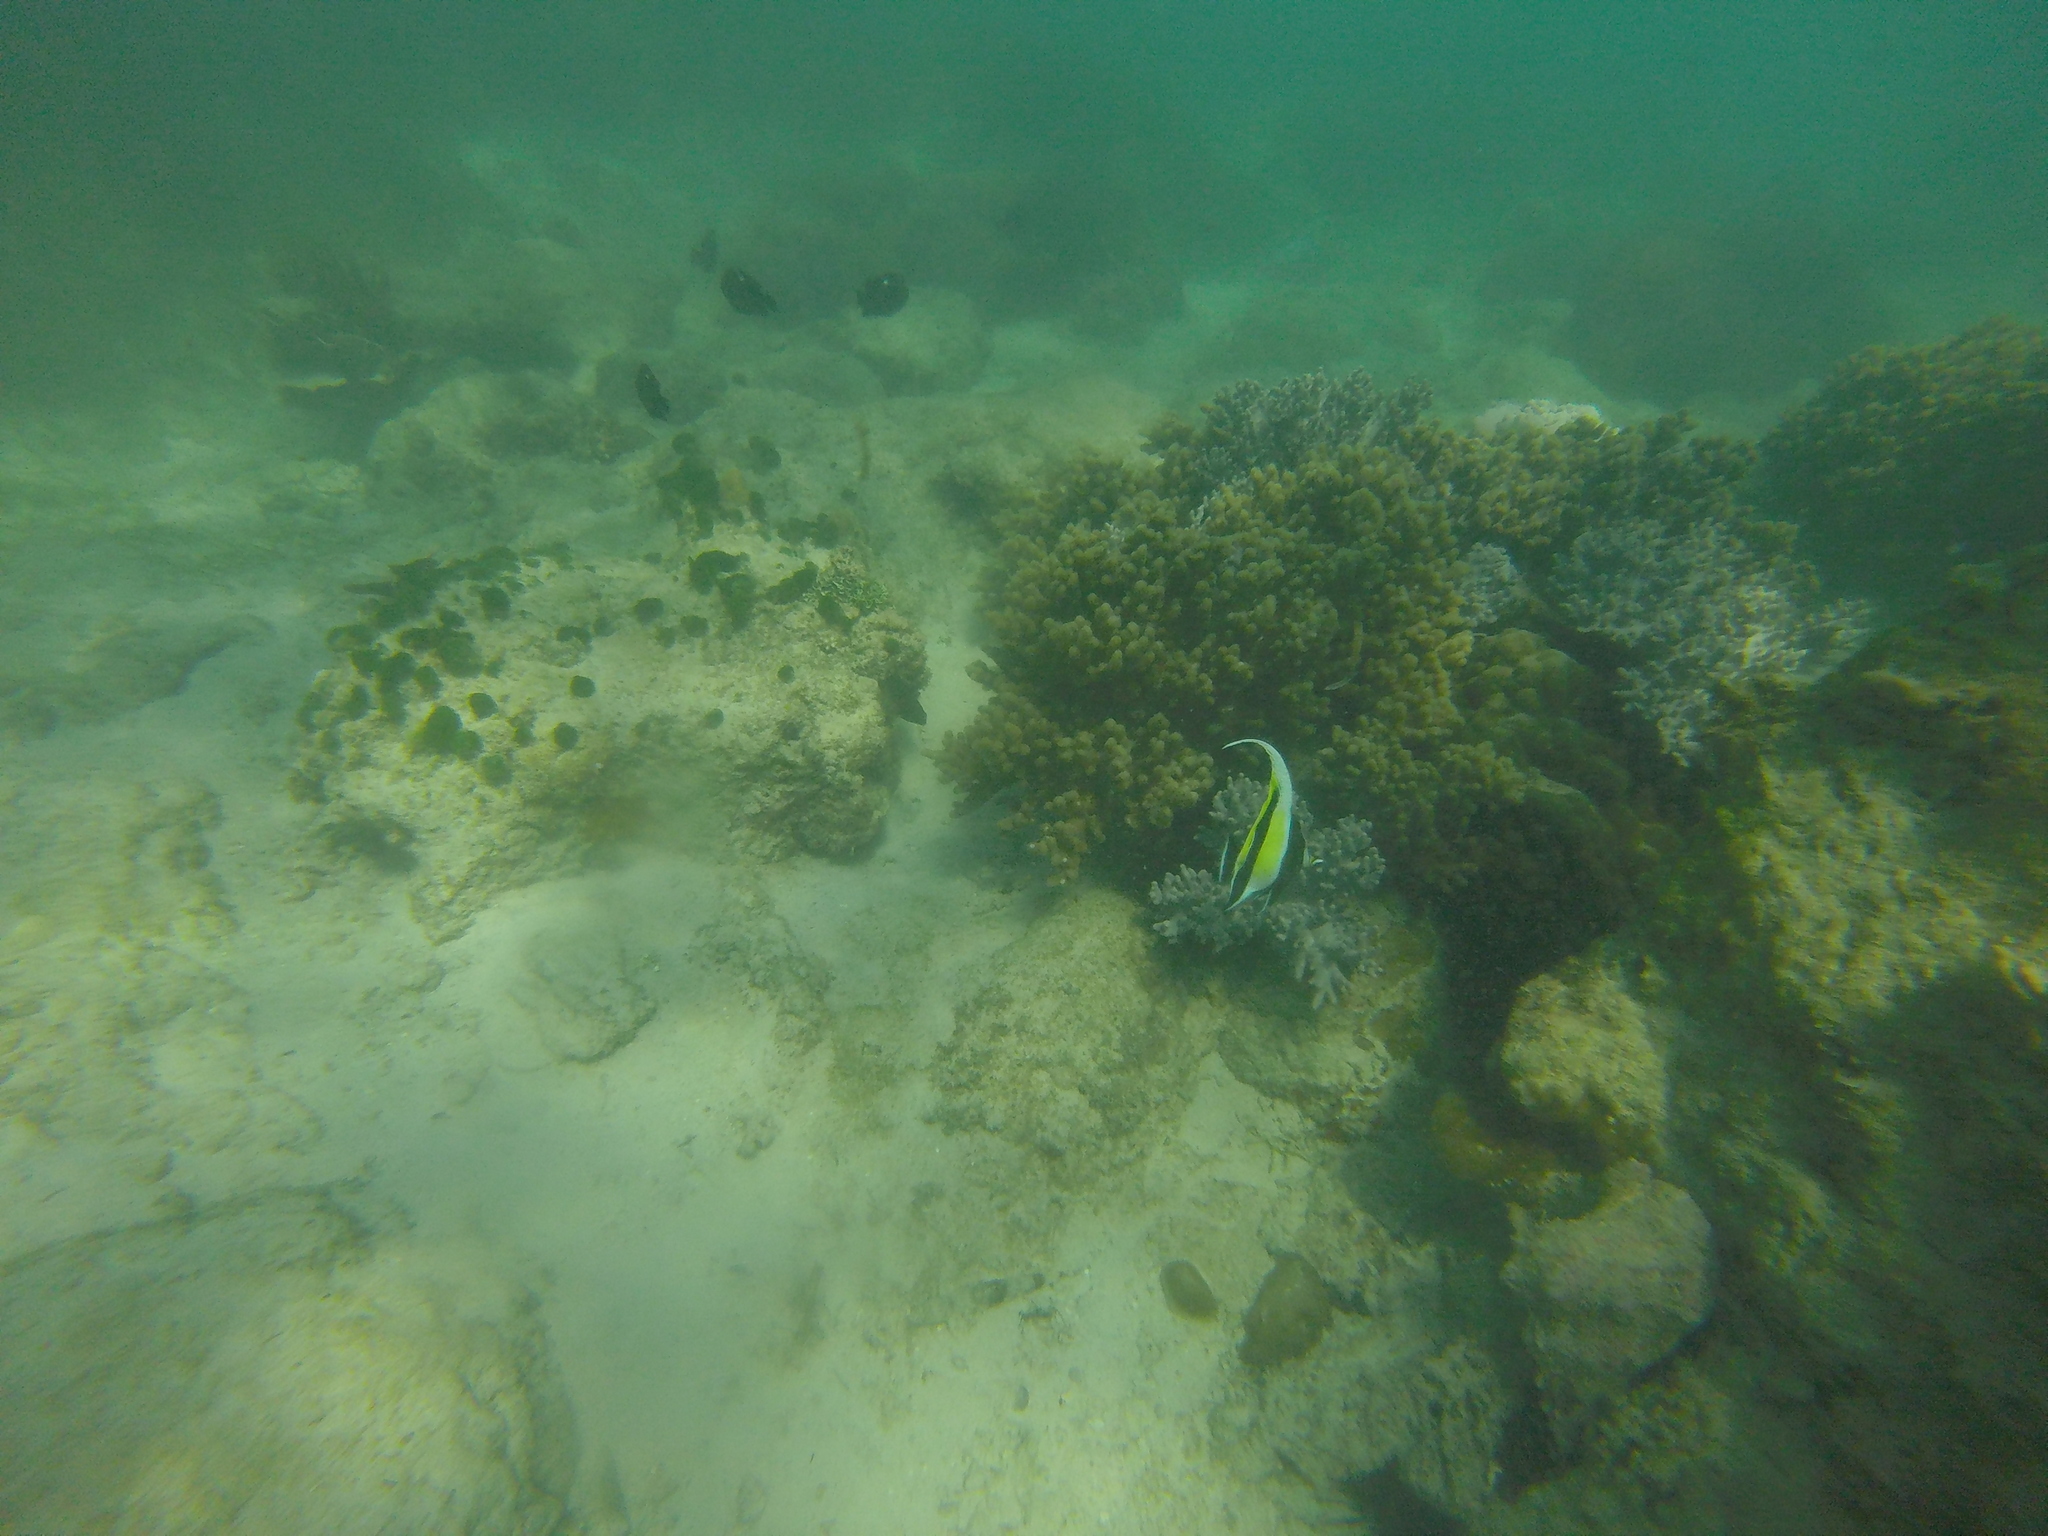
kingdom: Animalia
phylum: Chordata
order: Perciformes
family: Zanclidae
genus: Zanclus
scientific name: Zanclus cornutus
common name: Moorish idol
